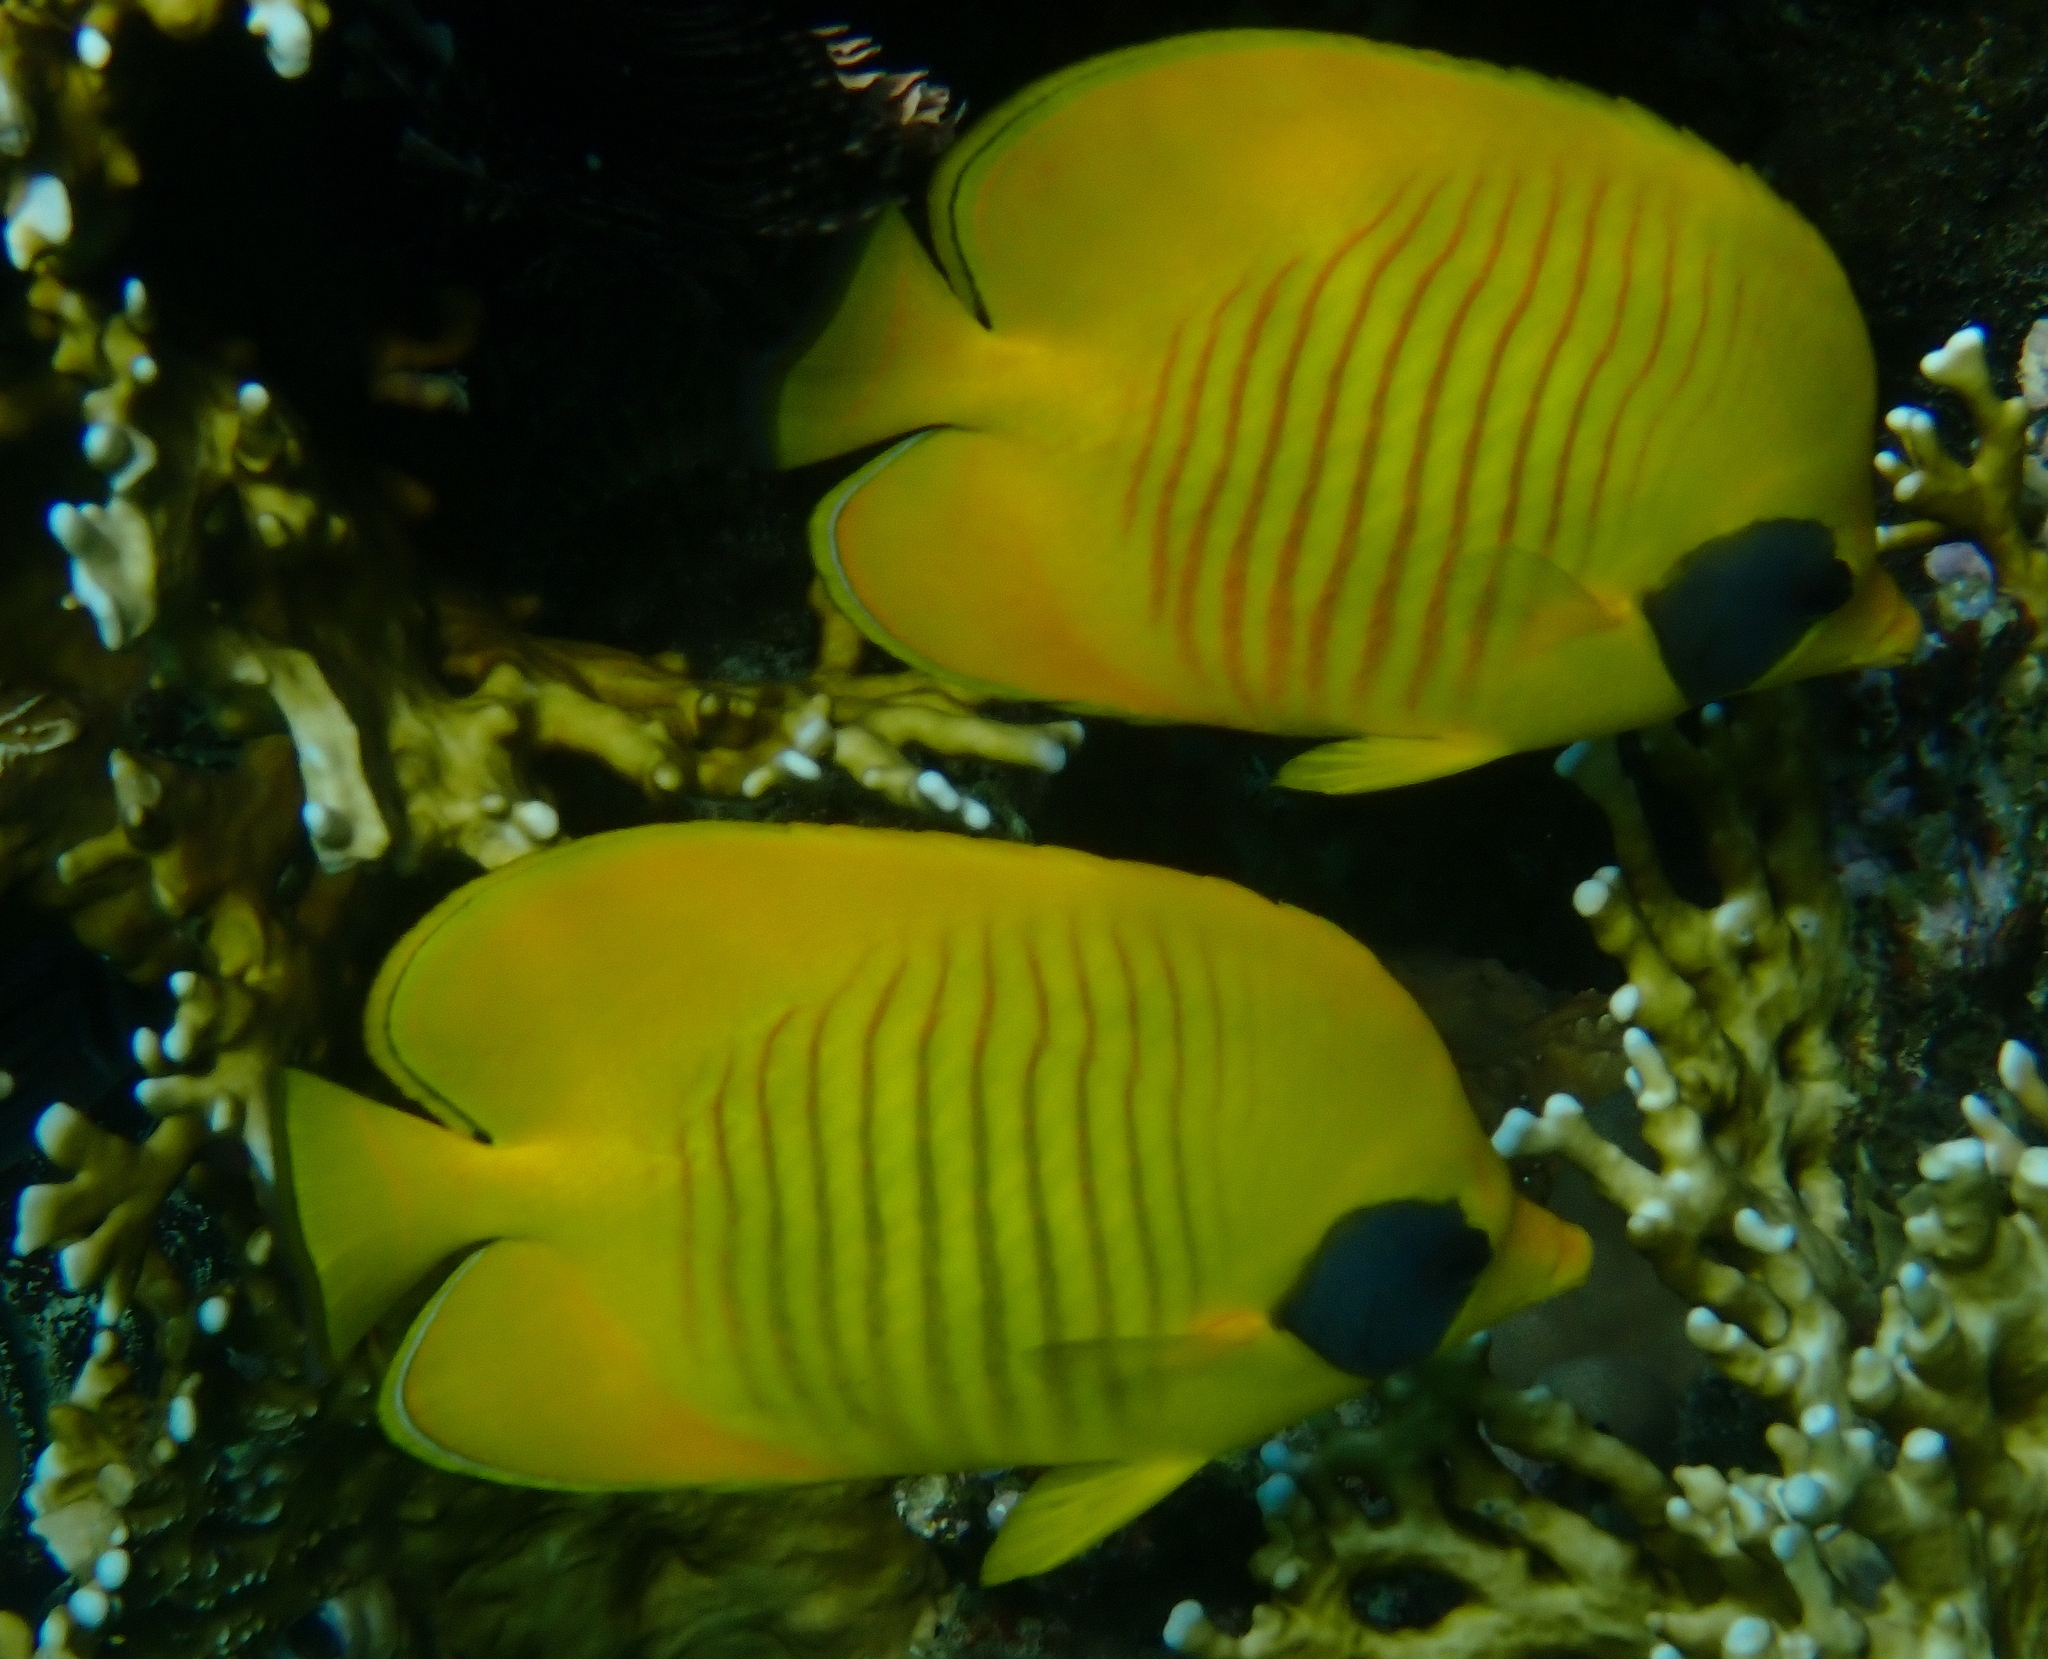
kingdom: Animalia
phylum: Chordata
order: Perciformes
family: Chaetodontidae
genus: Chaetodon
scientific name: Chaetodon semilarvatus
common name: Golden butterflyfish
